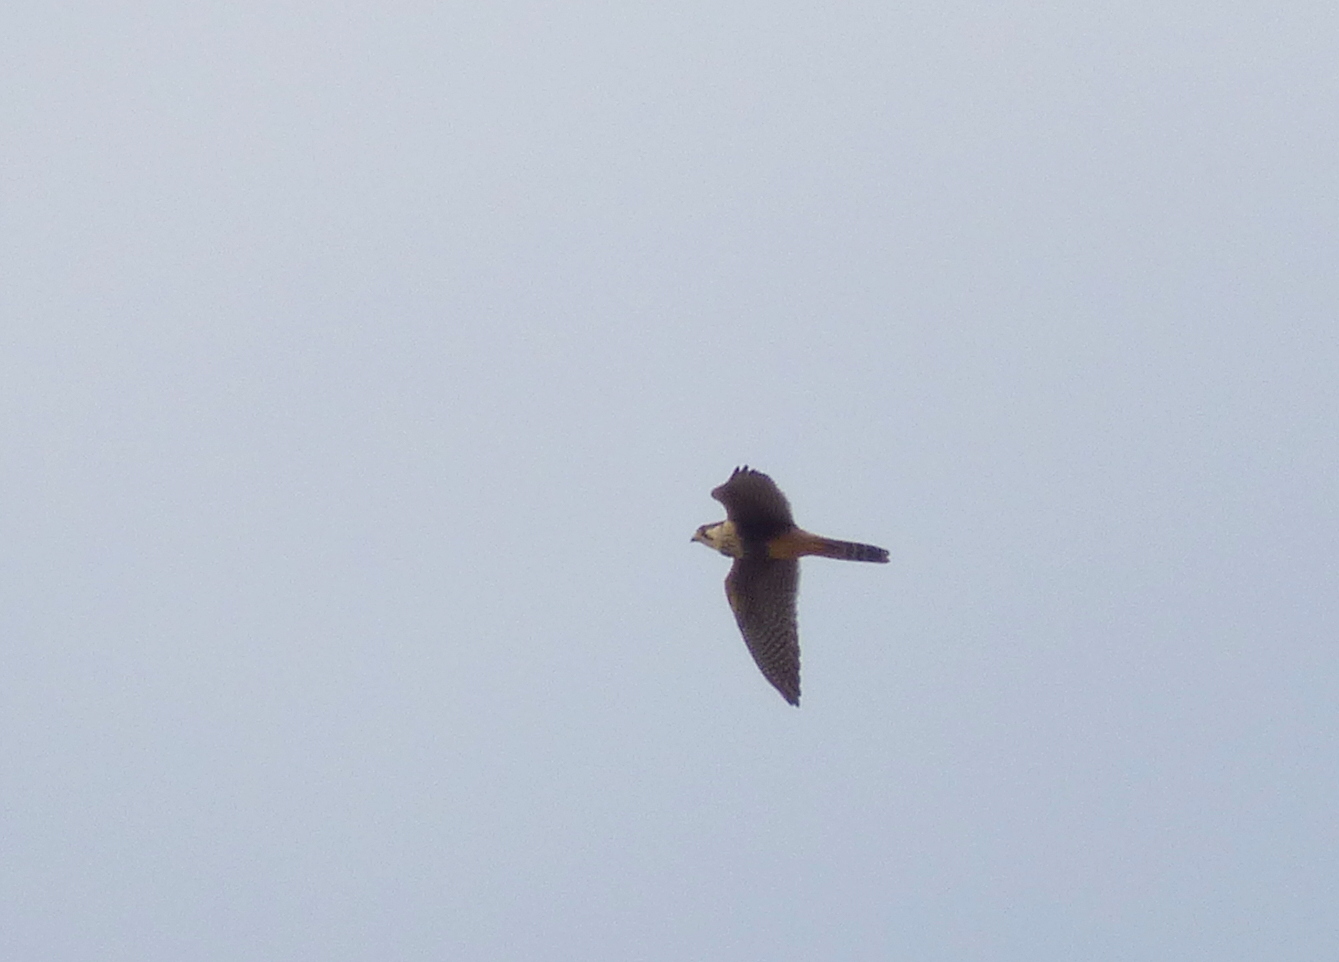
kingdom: Animalia
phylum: Chordata
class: Aves
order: Falconiformes
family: Falconidae
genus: Falco
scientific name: Falco femoralis
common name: Aplomado falcon
